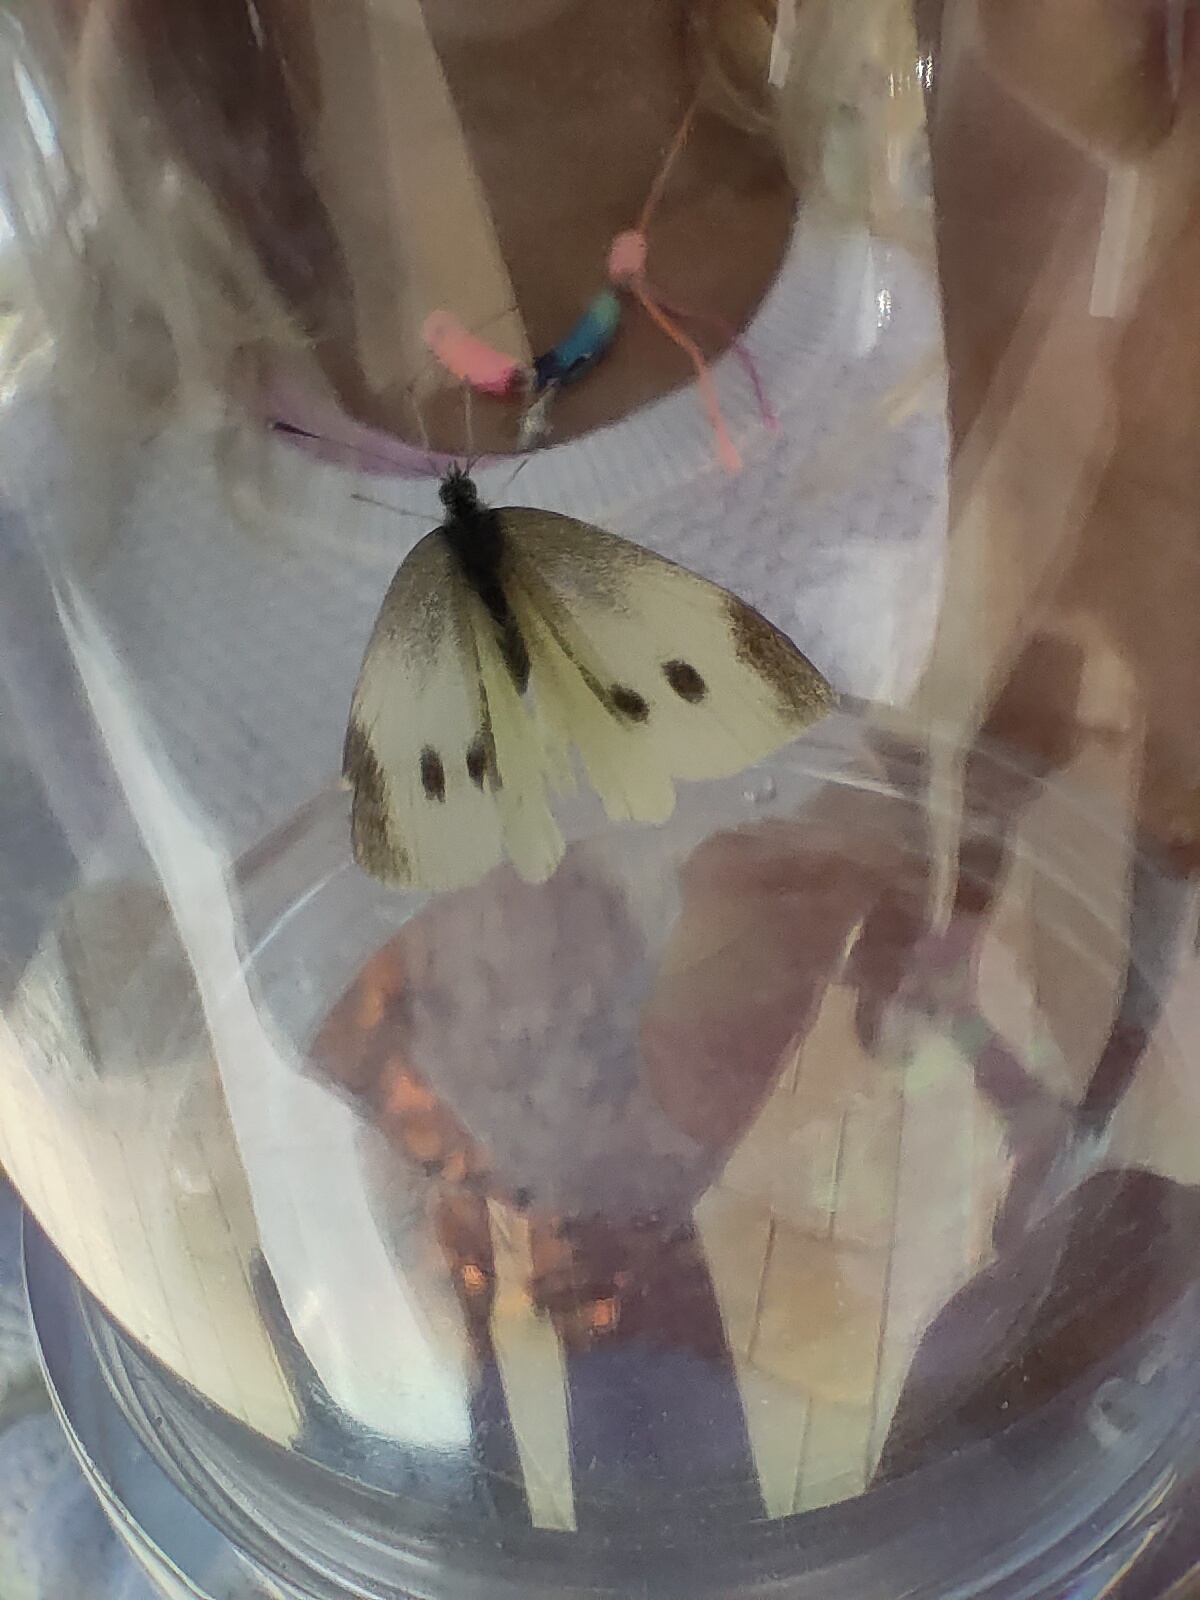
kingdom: Animalia
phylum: Arthropoda
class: Insecta
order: Lepidoptera
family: Pieridae
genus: Pieris
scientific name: Pieris rapae
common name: Small white
